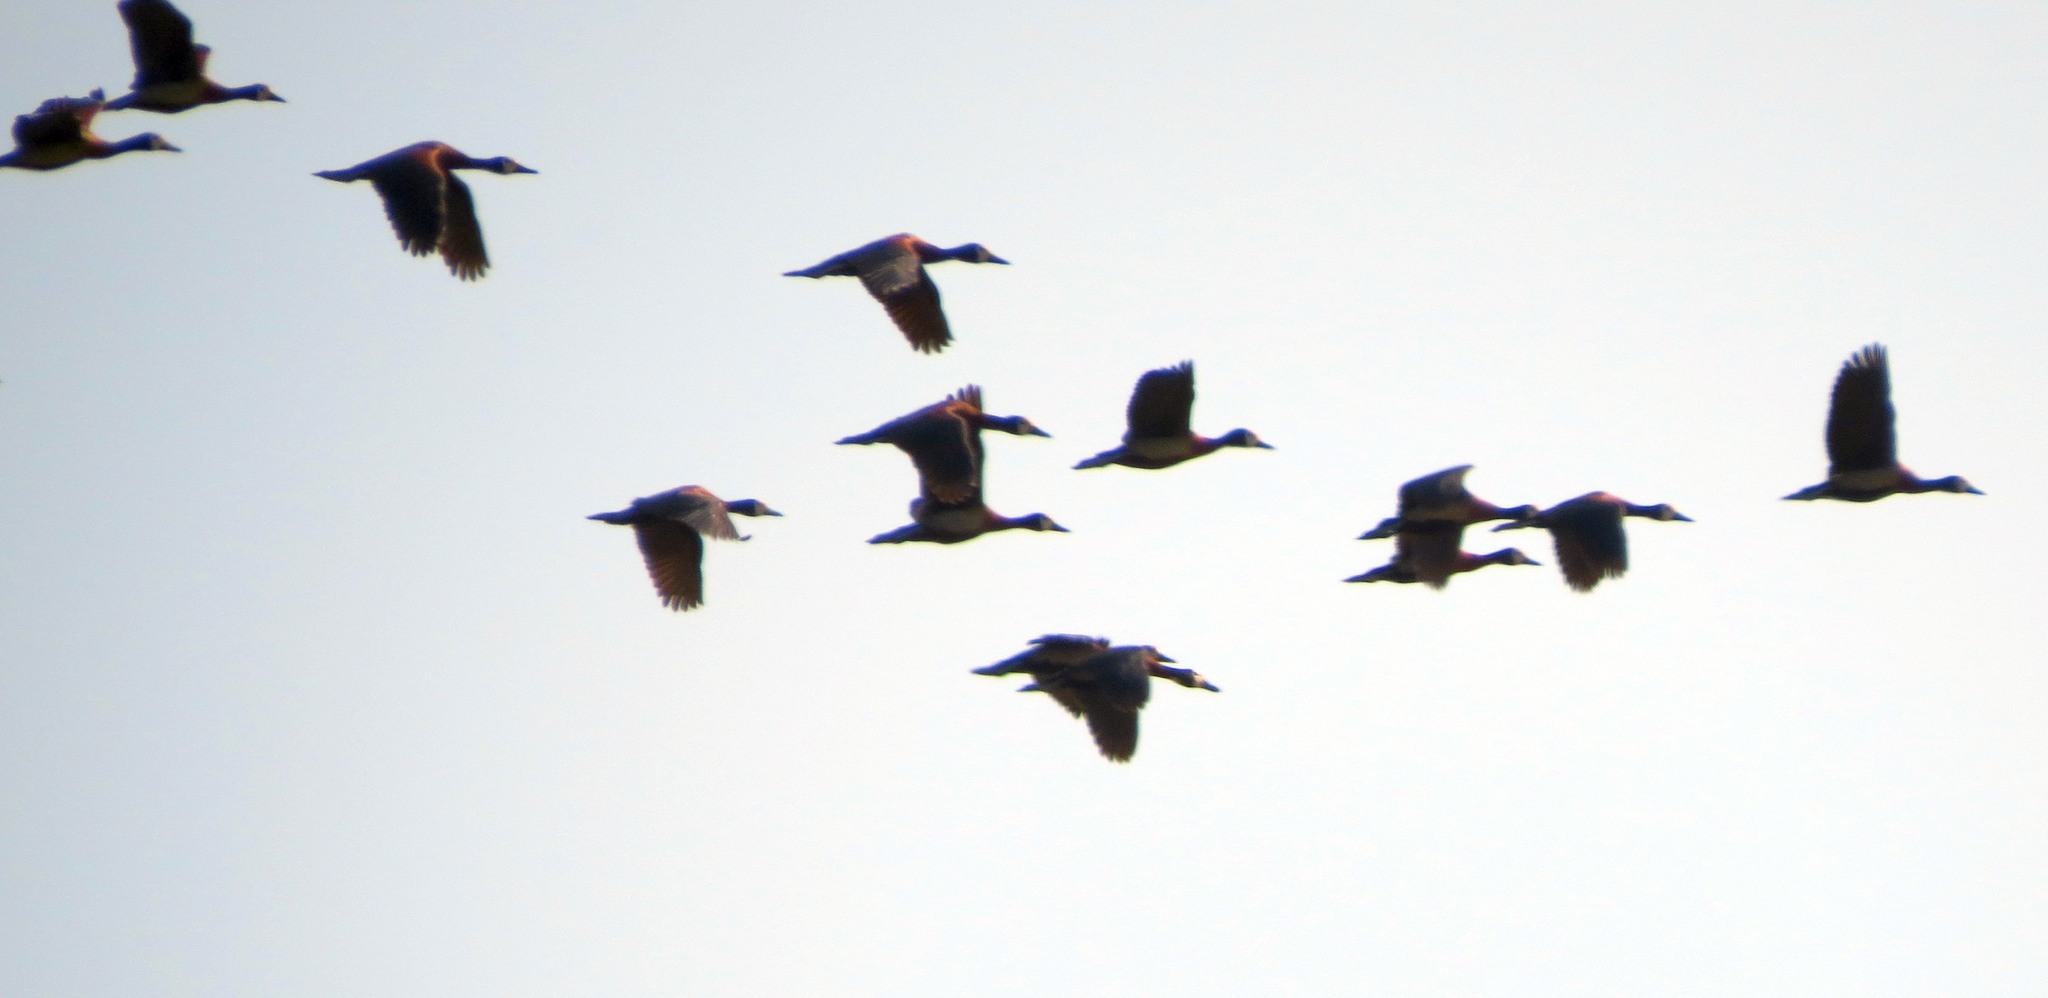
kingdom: Animalia
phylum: Chordata
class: Aves
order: Anseriformes
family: Anatidae
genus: Dendrocygna
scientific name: Dendrocygna viduata
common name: White-faced whistling duck
